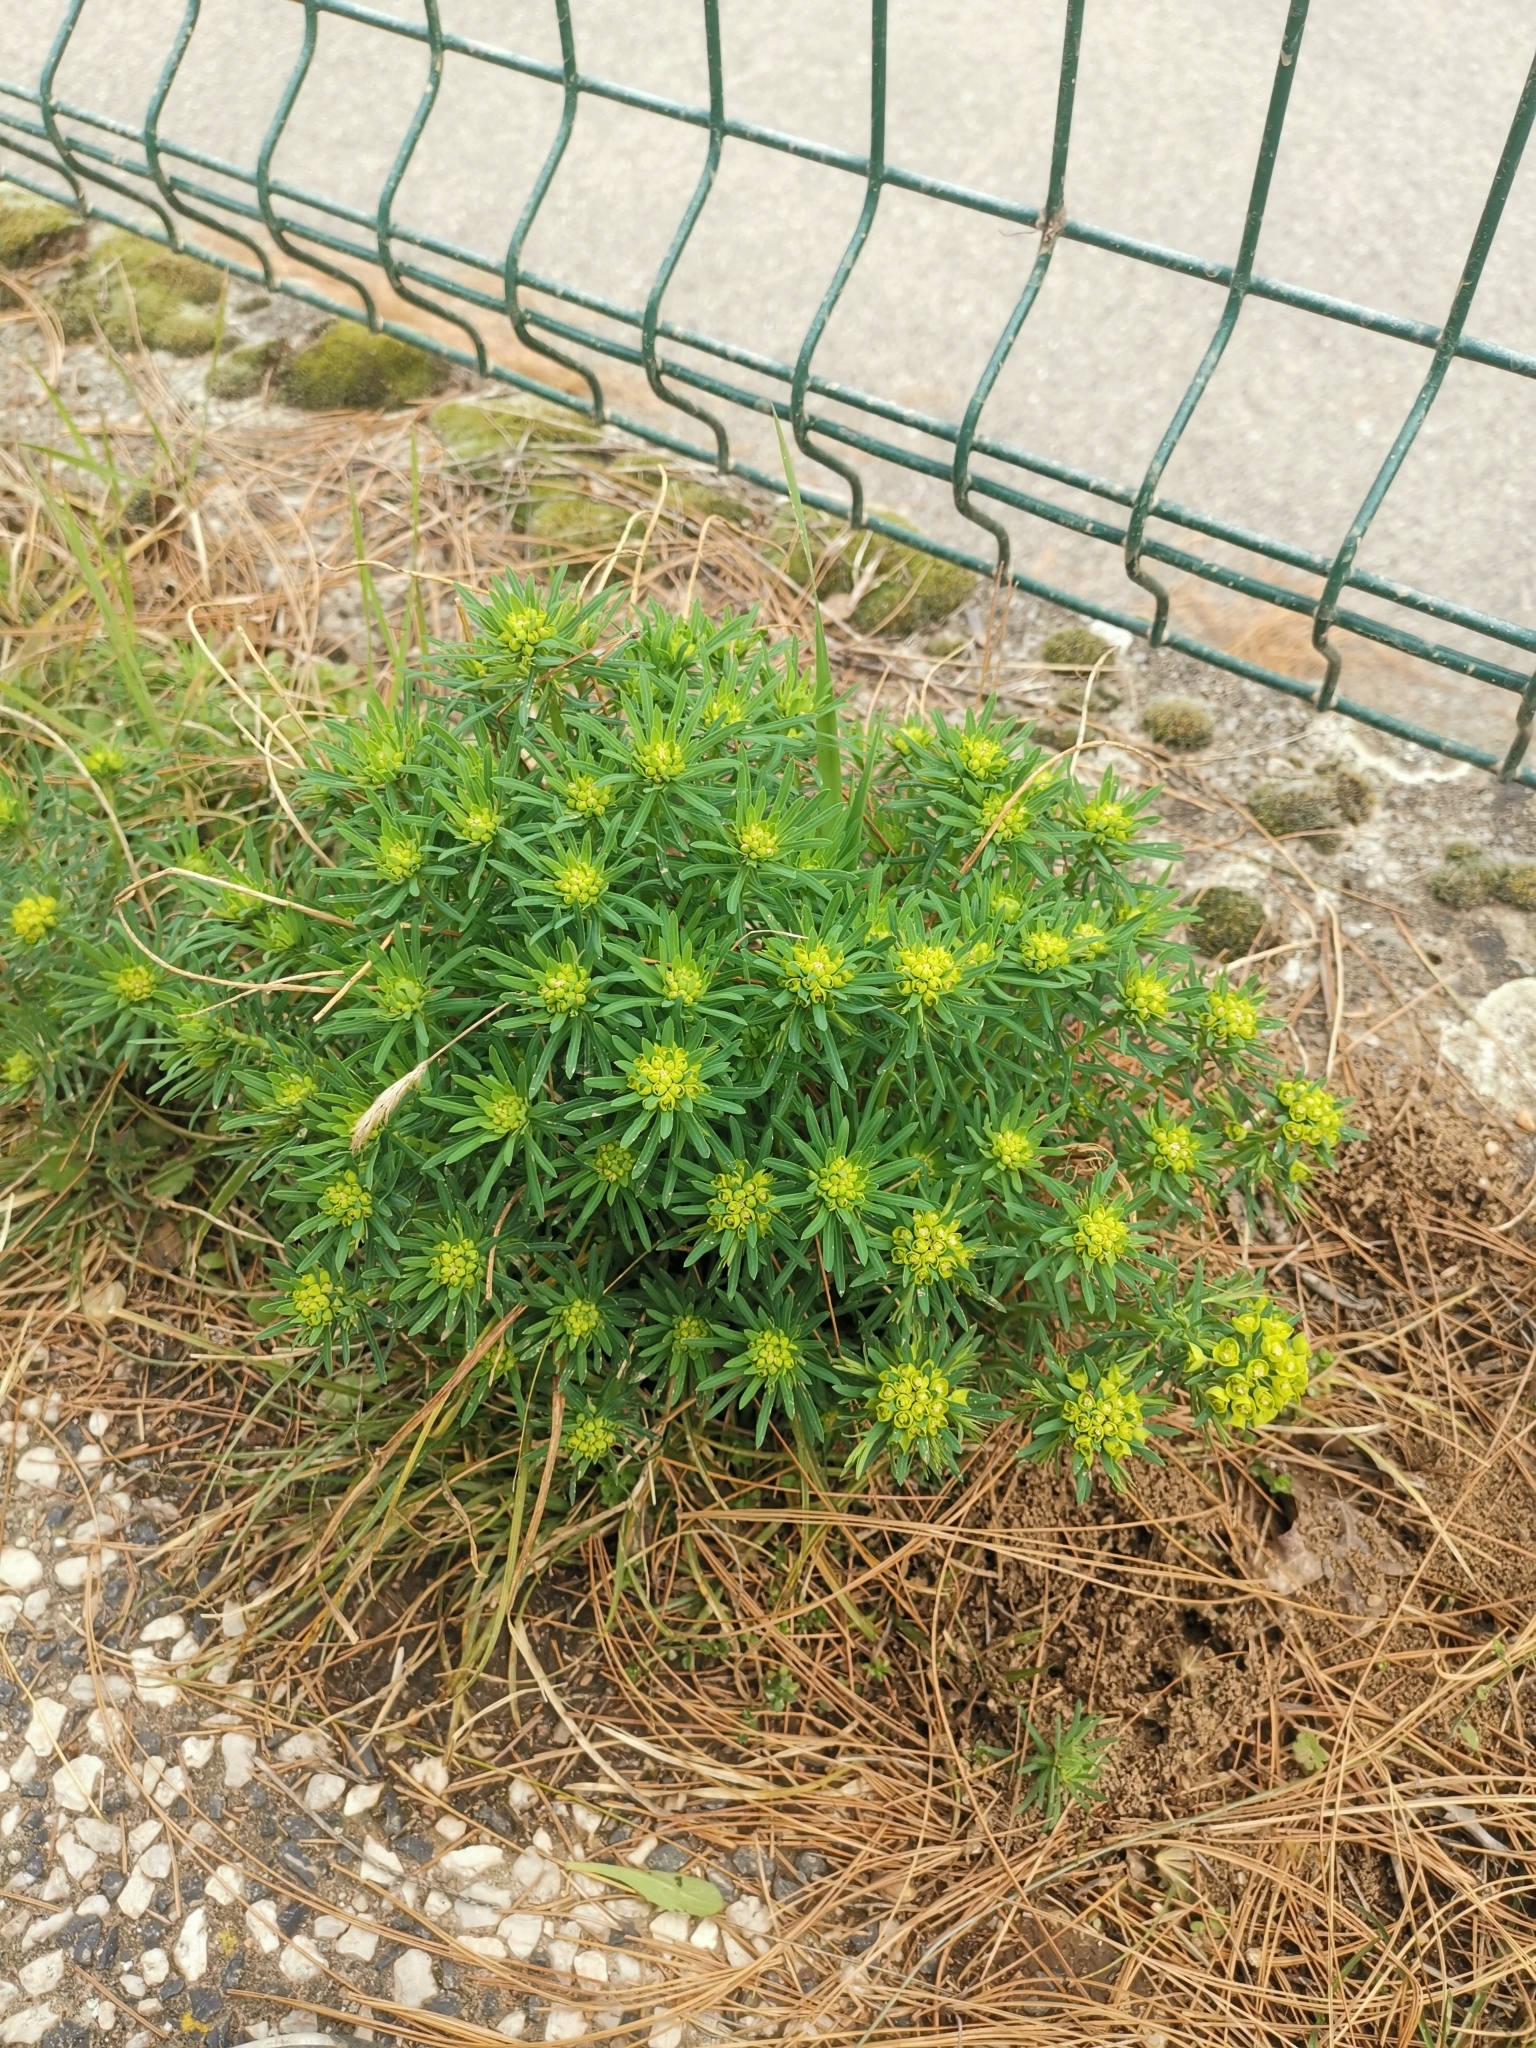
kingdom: Plantae
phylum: Tracheophyta
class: Magnoliopsida
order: Malpighiales
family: Euphorbiaceae
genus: Euphorbia
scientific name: Euphorbia cyparissias
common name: Cypress spurge
